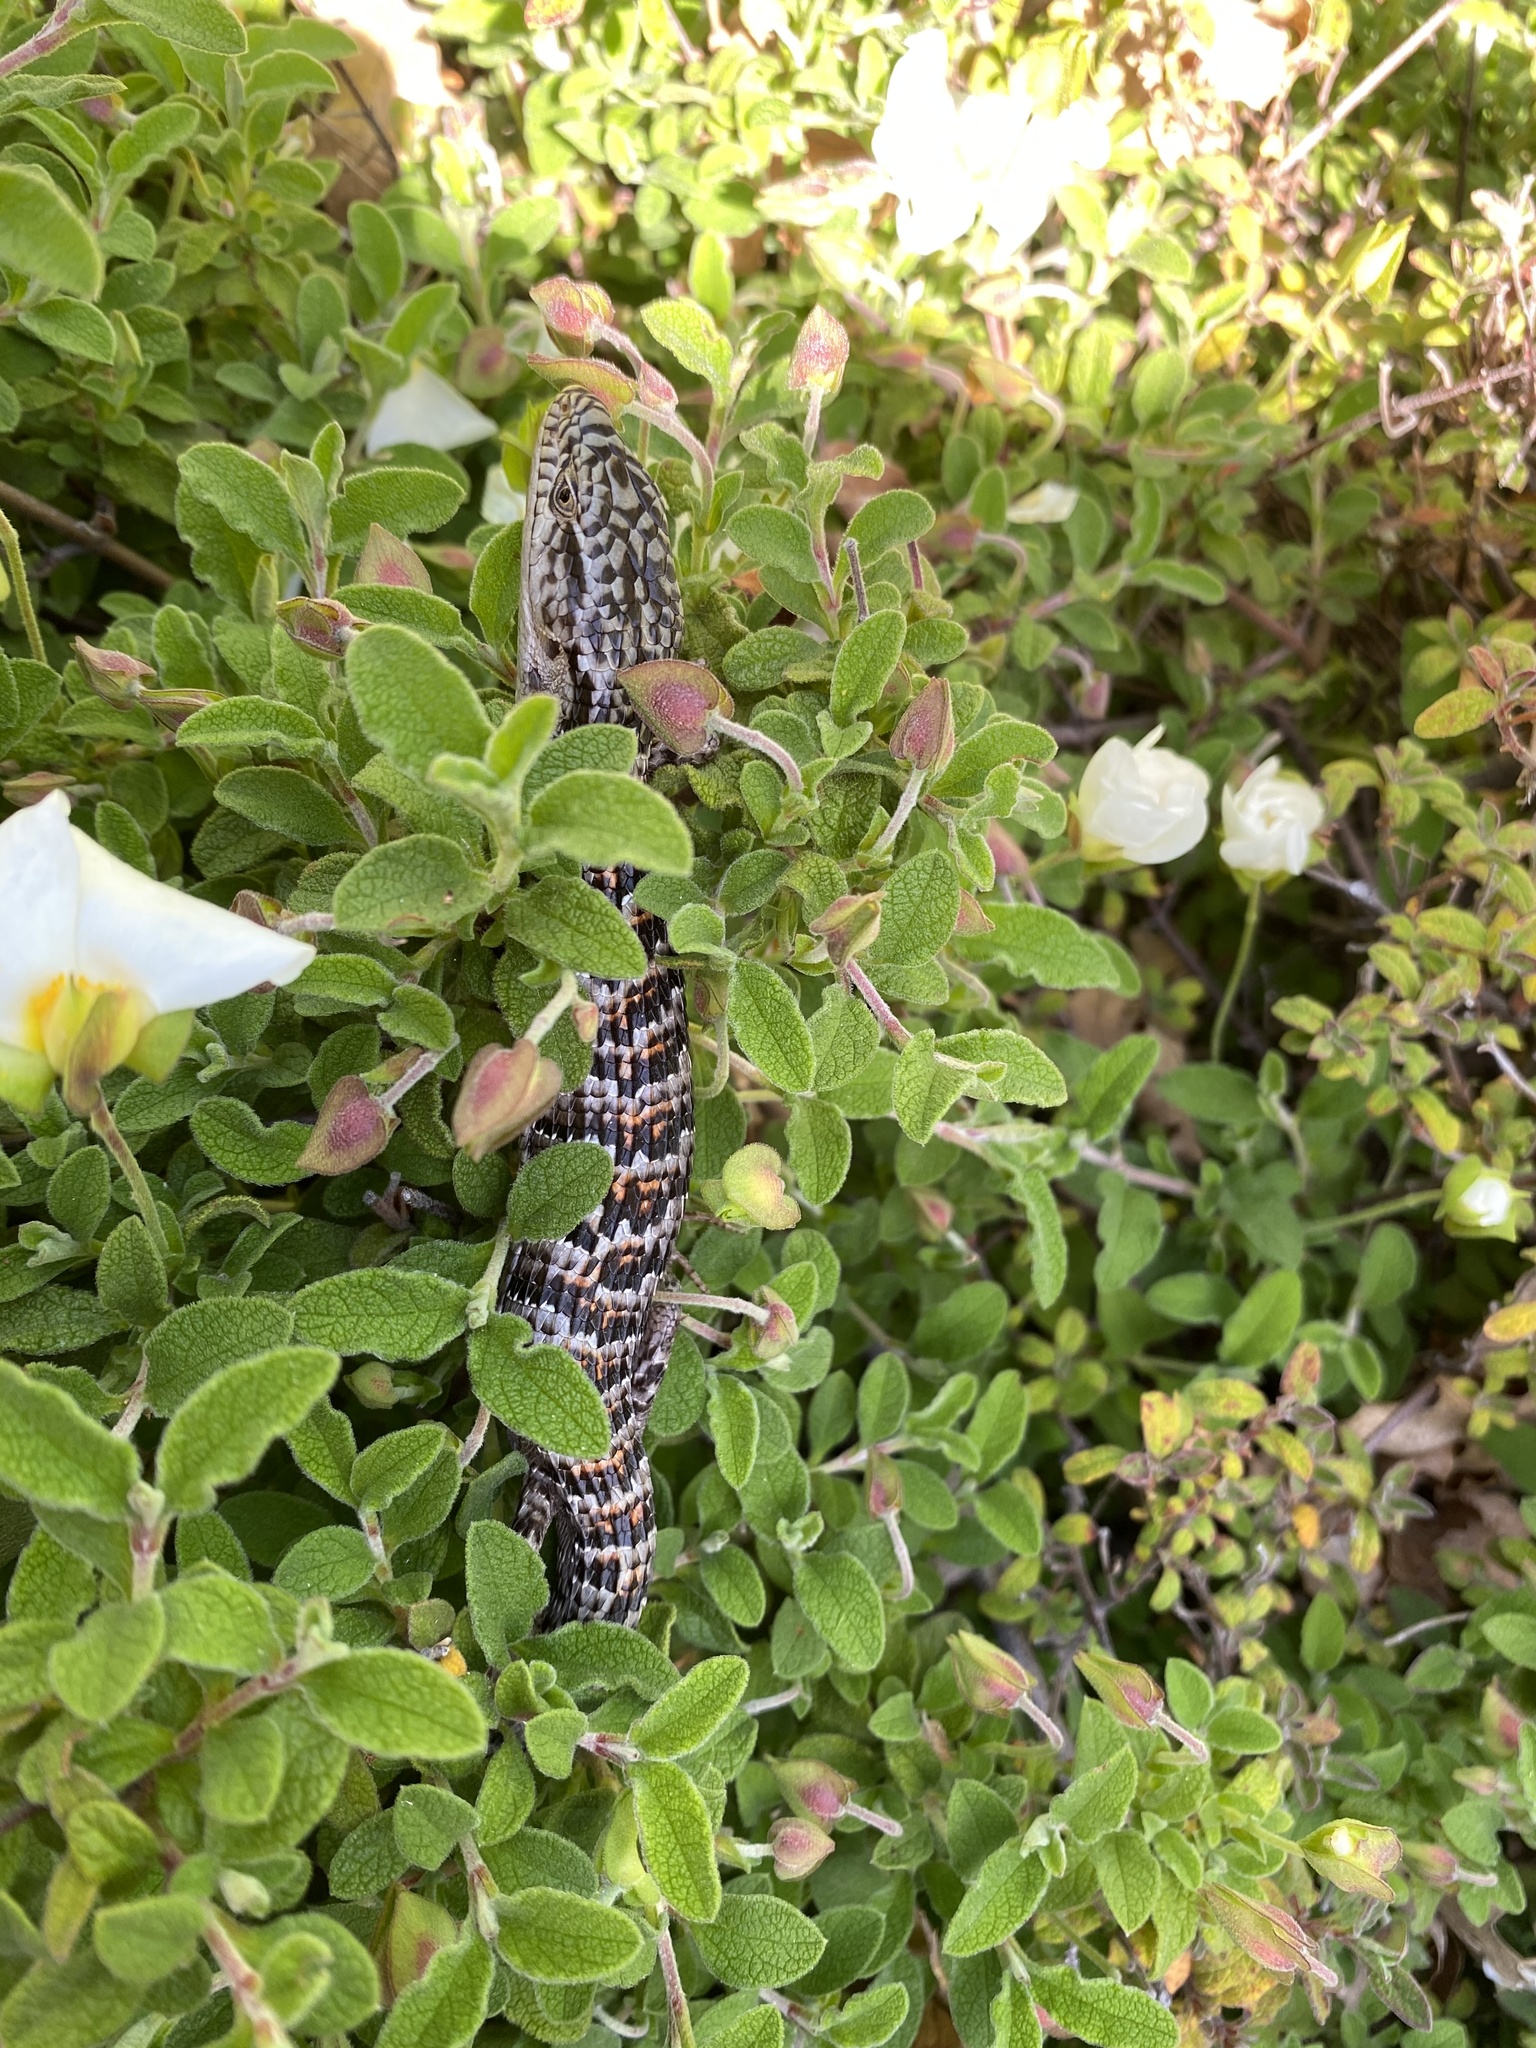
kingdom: Animalia
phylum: Chordata
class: Squamata
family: Anguidae
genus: Elgaria
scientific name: Elgaria multicarinata
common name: Southern alligator lizard
